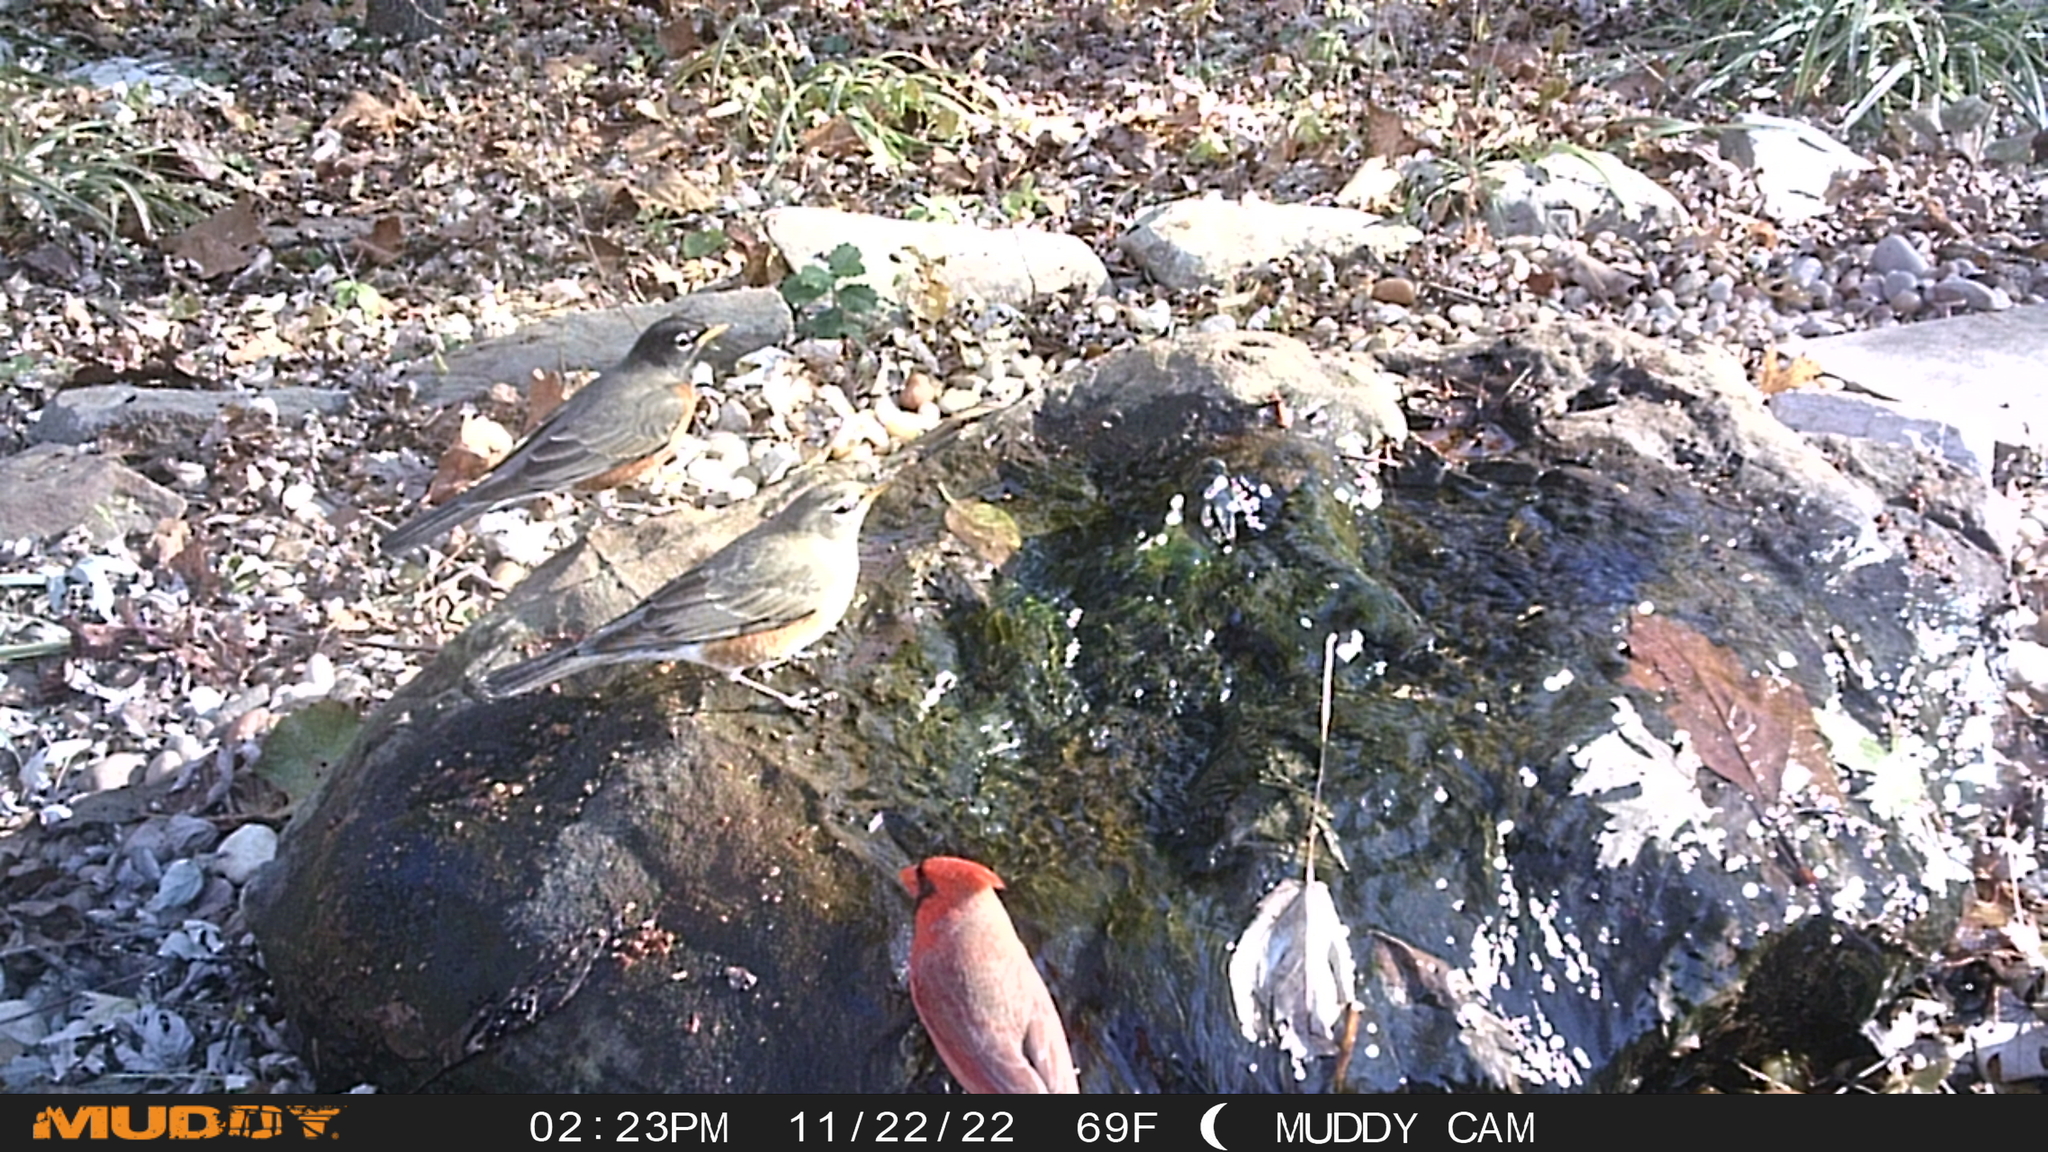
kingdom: Animalia
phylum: Chordata
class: Aves
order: Passeriformes
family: Cardinalidae
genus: Cardinalis
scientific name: Cardinalis cardinalis
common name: Northern cardinal
